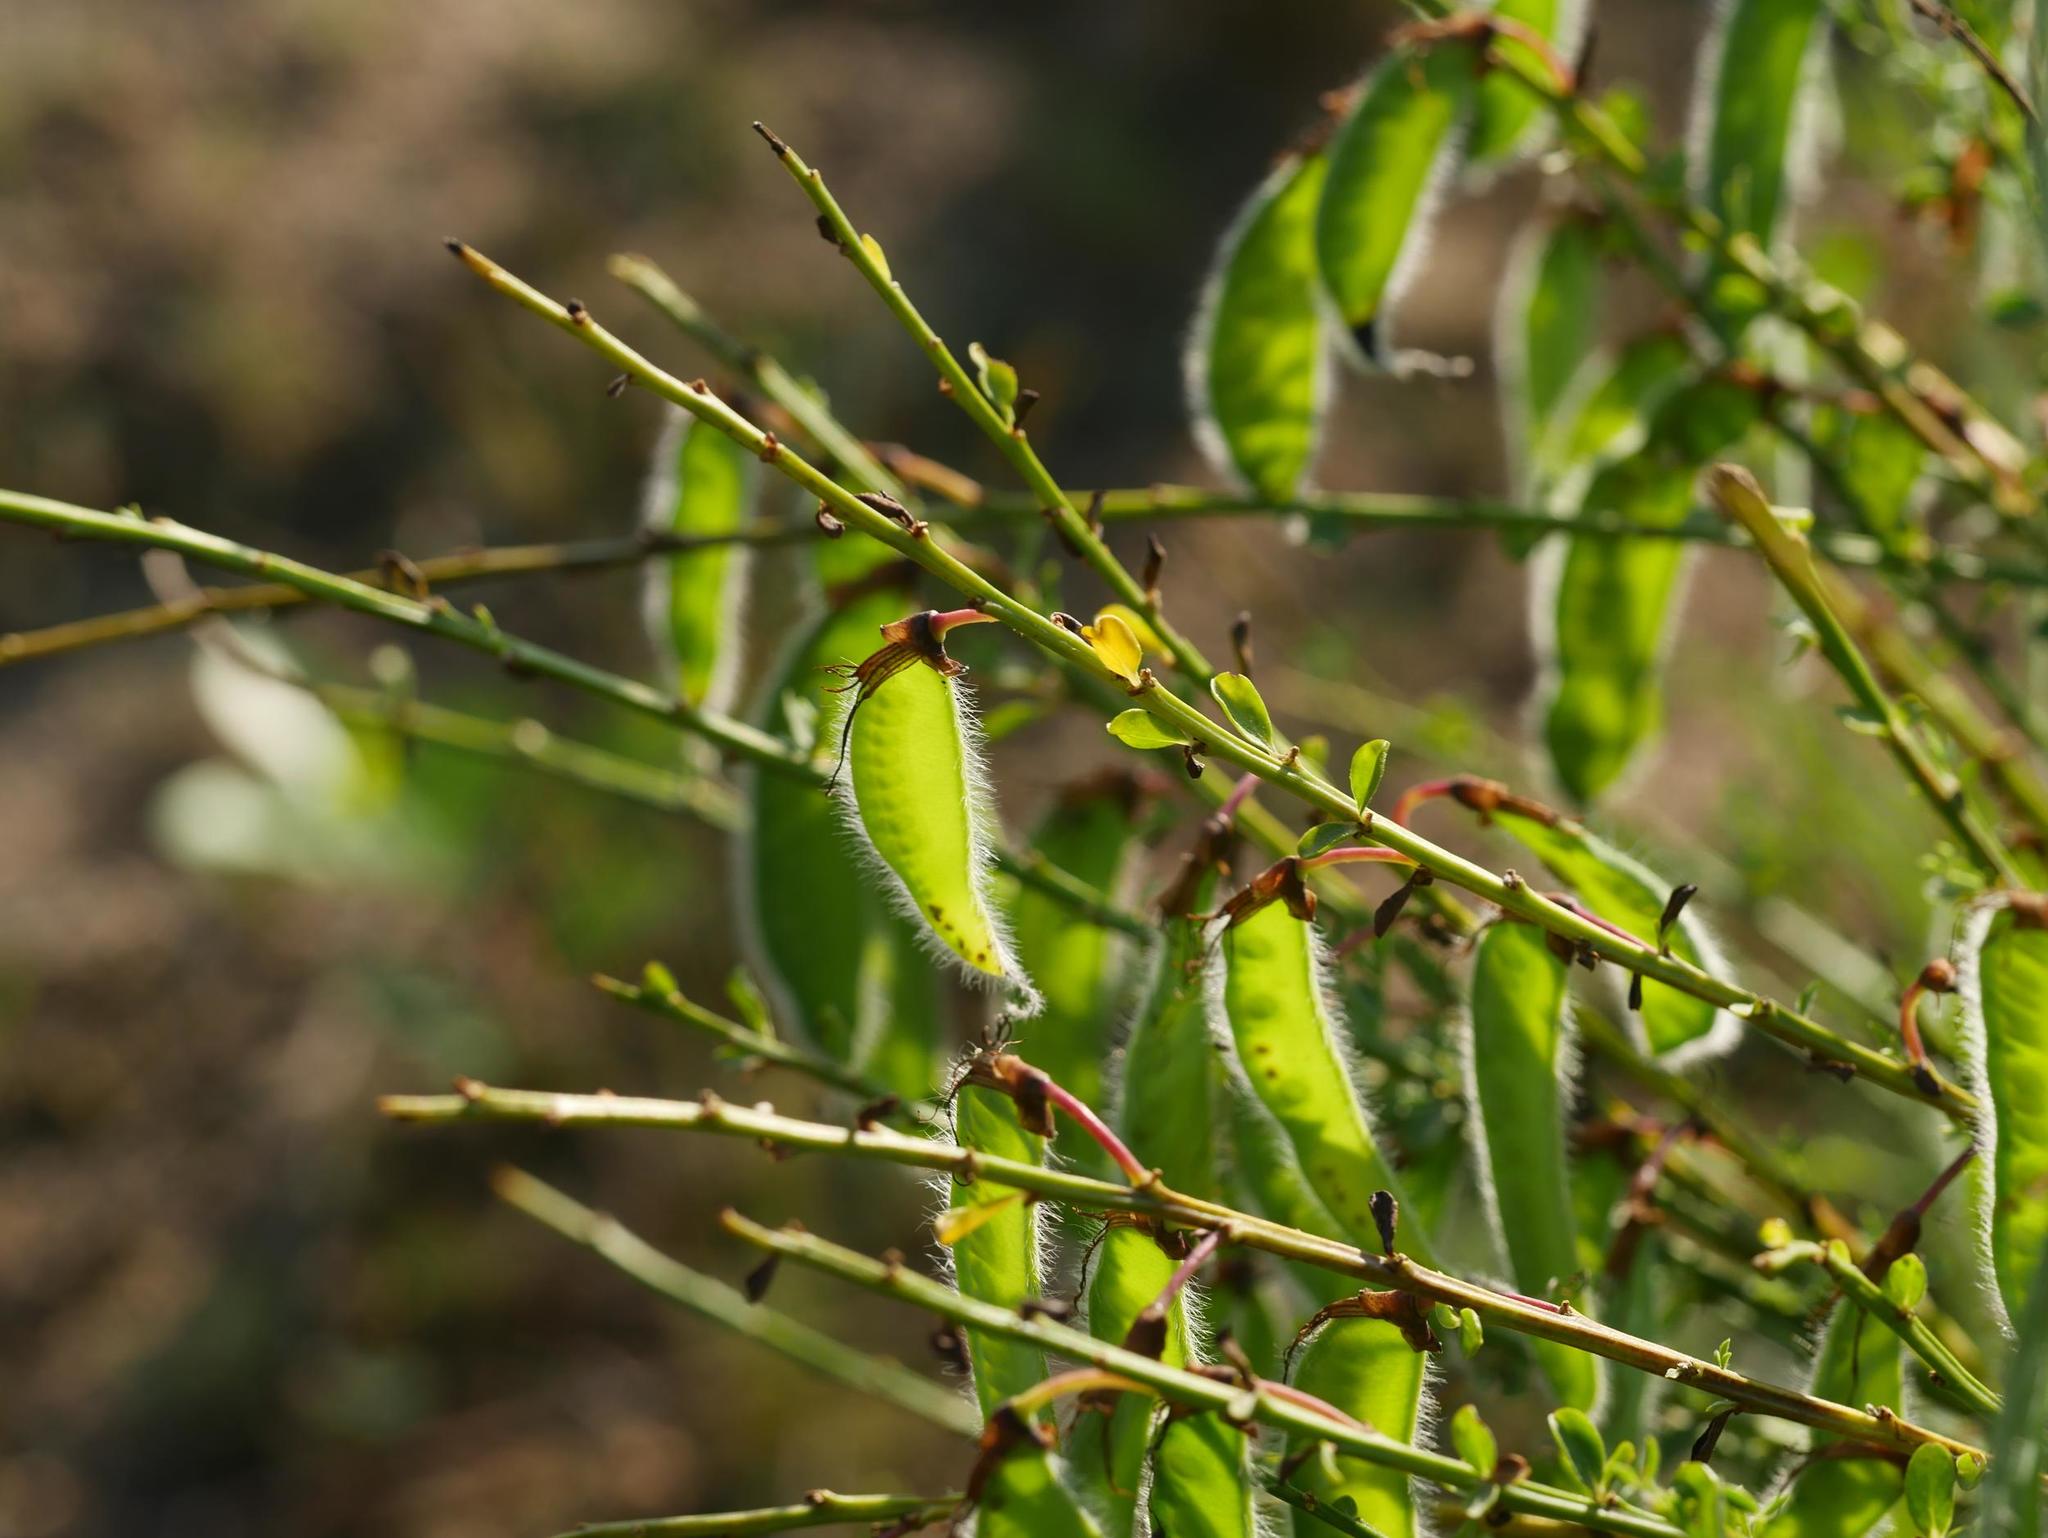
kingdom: Plantae
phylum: Tracheophyta
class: Magnoliopsida
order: Fabales
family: Fabaceae
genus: Cytisus
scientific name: Cytisus scoparius
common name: Scotch broom
